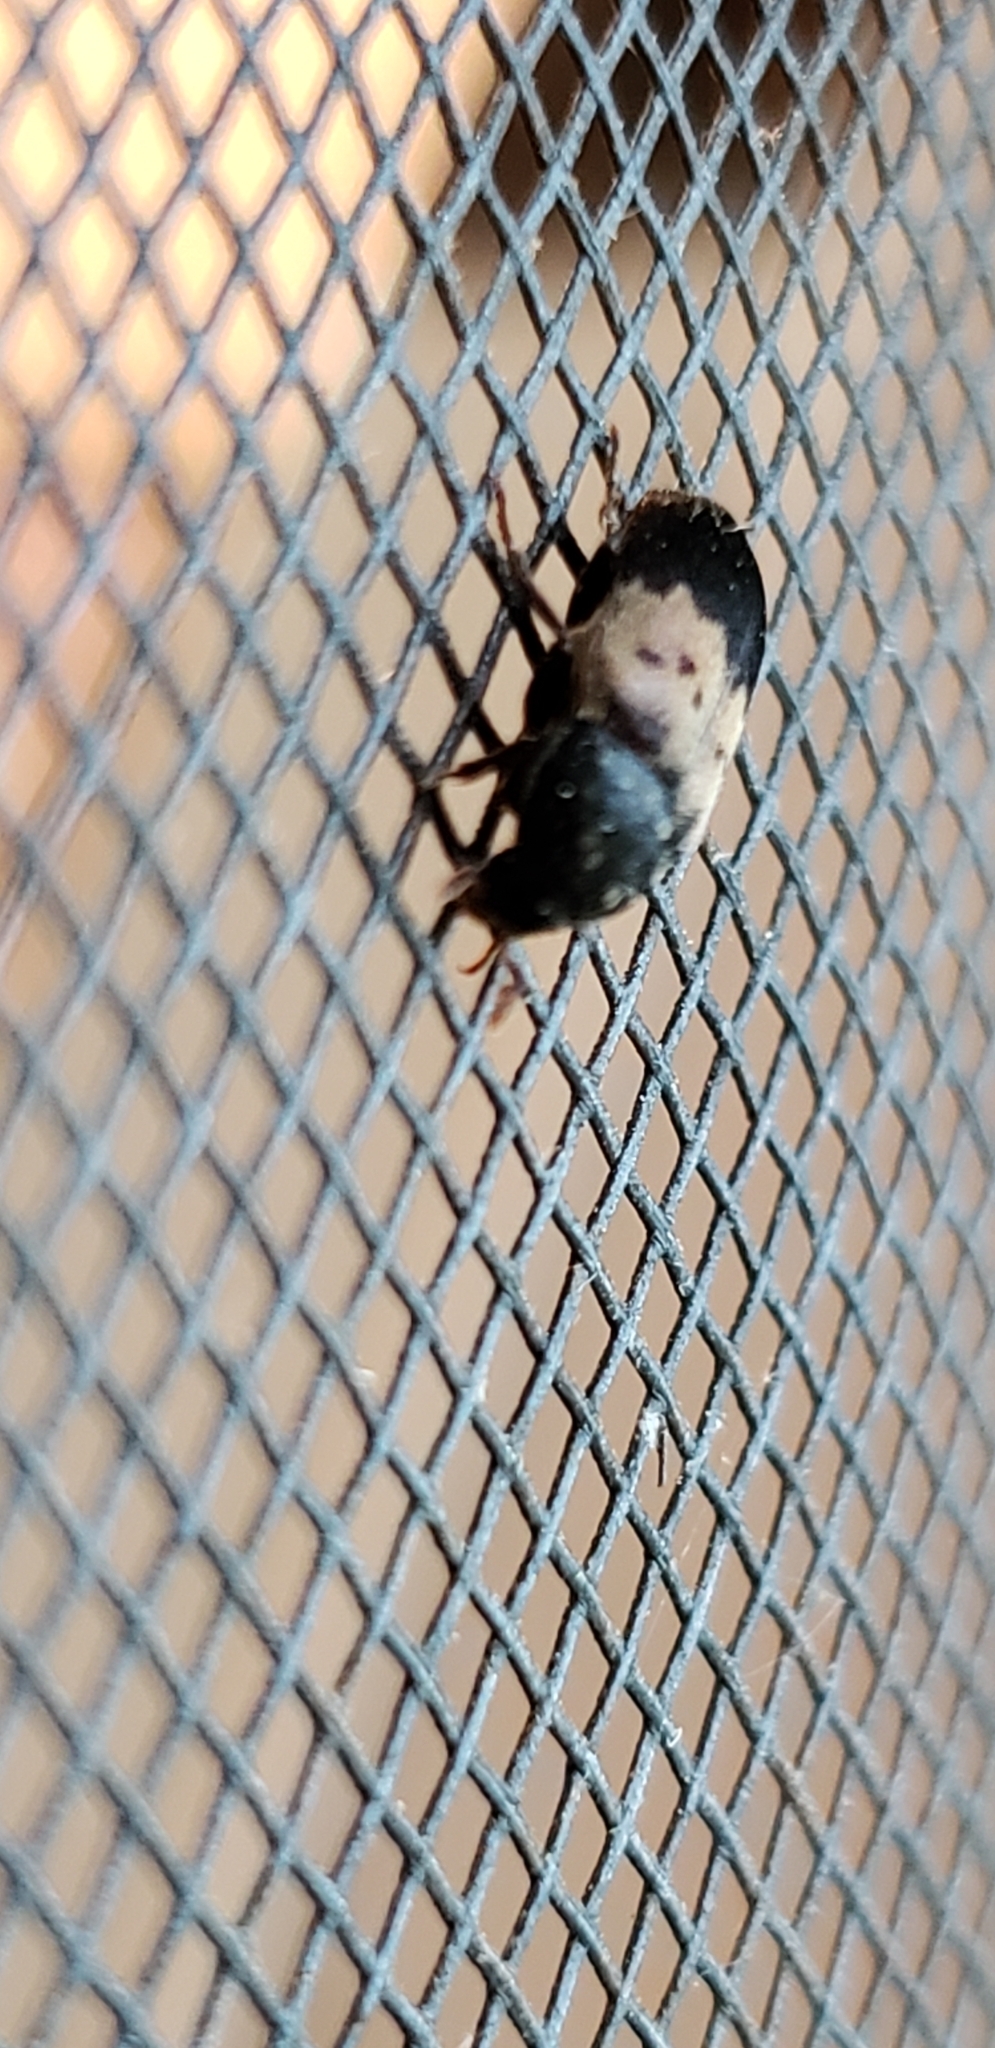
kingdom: Animalia
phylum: Arthropoda
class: Insecta
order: Coleoptera
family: Dermestidae
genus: Dermestes
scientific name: Dermestes lardarius
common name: Larder beetle
